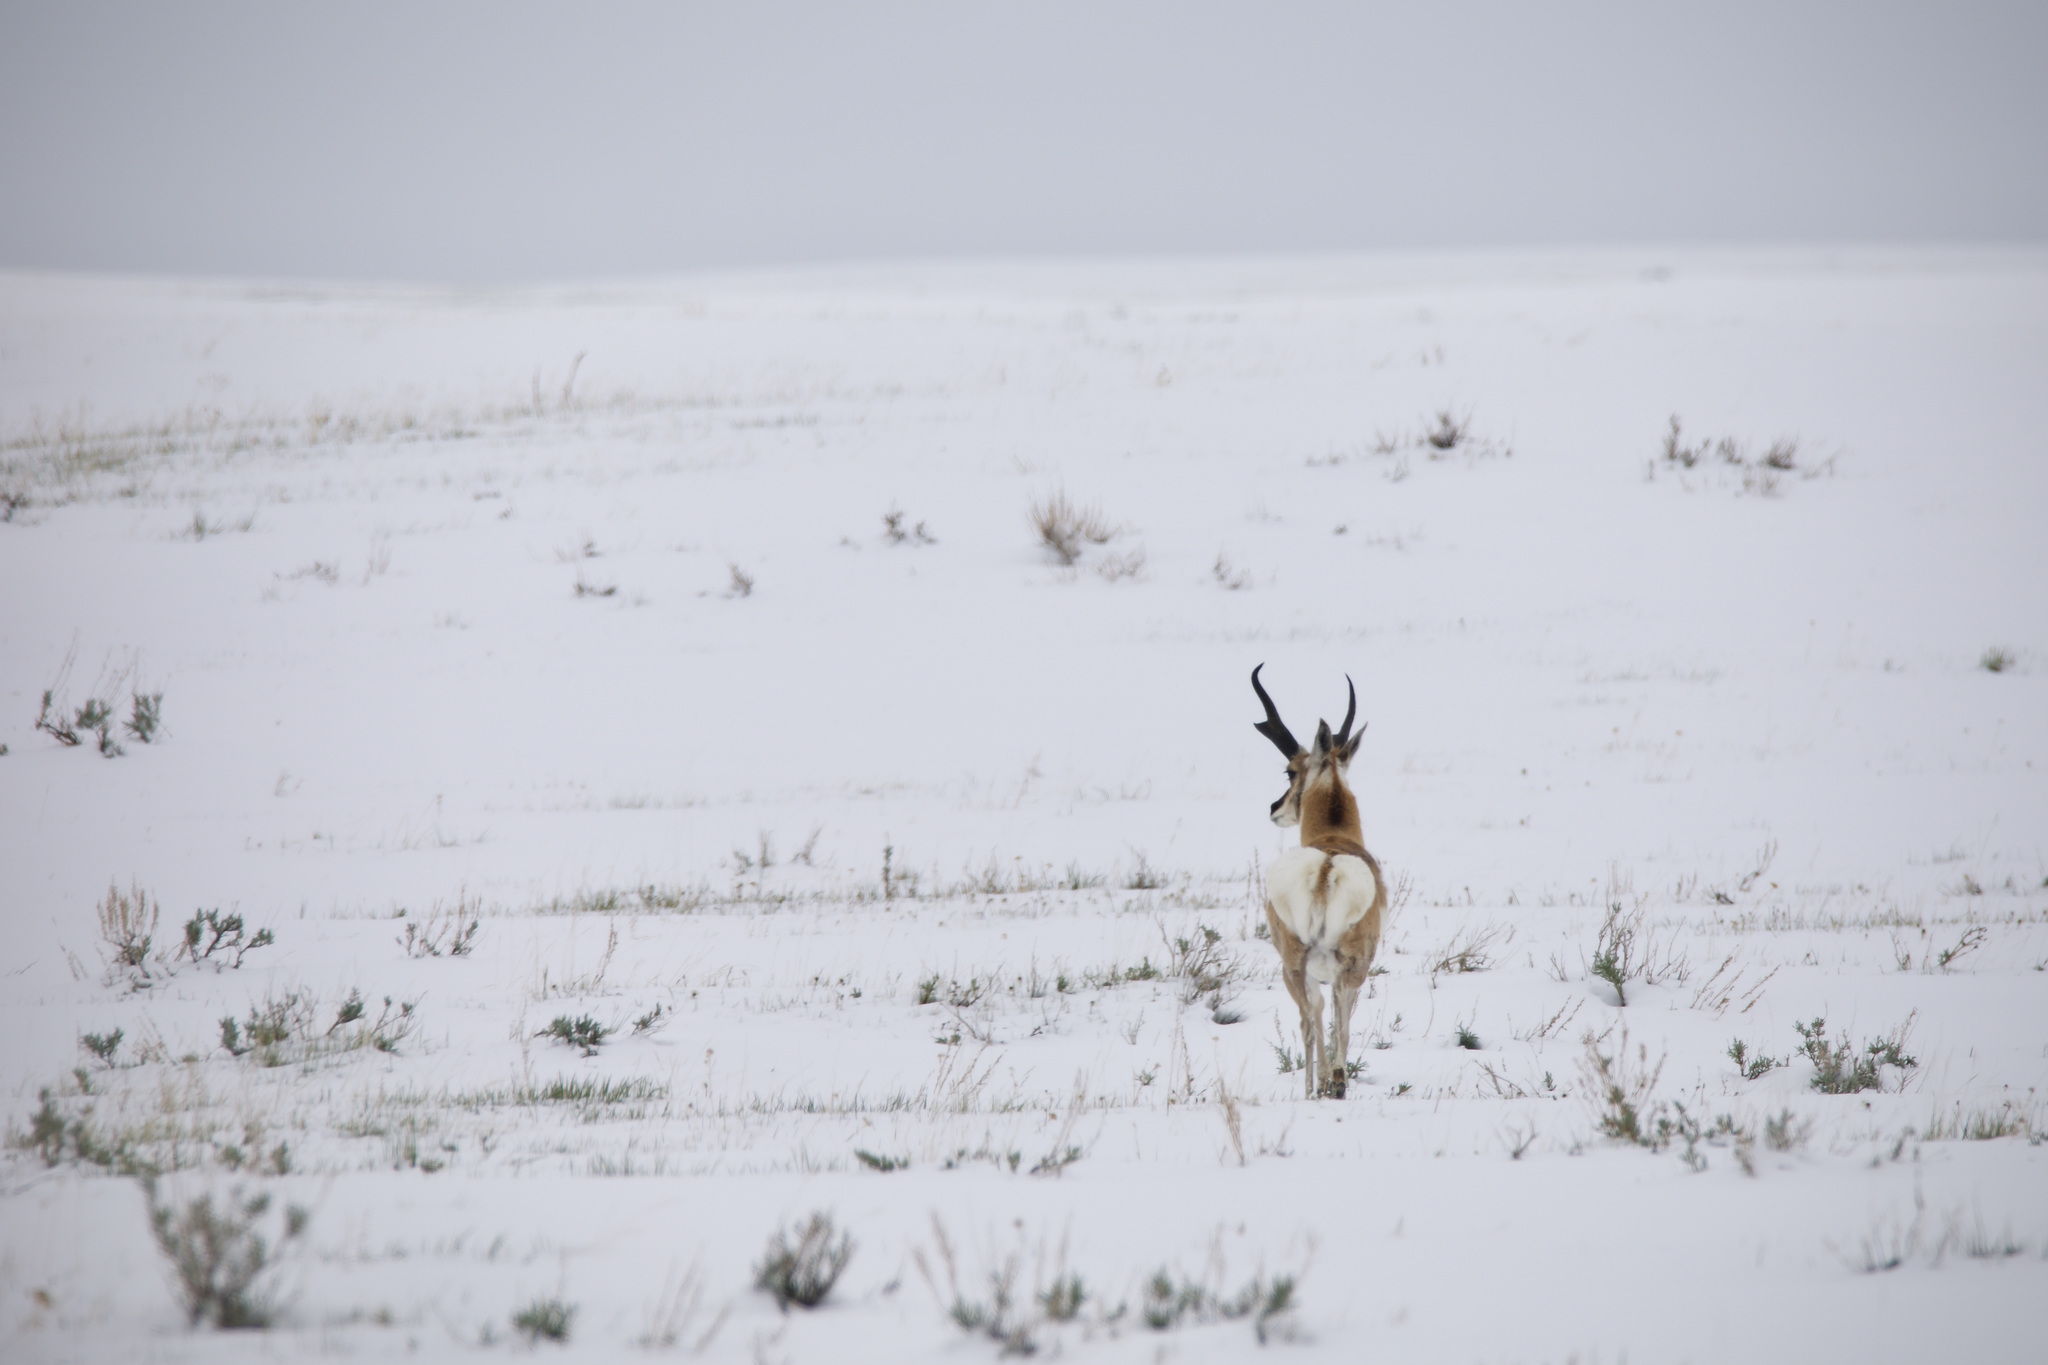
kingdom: Animalia
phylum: Chordata
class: Mammalia
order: Artiodactyla
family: Antilocapridae
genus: Antilocapra
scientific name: Antilocapra americana
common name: Pronghorn
